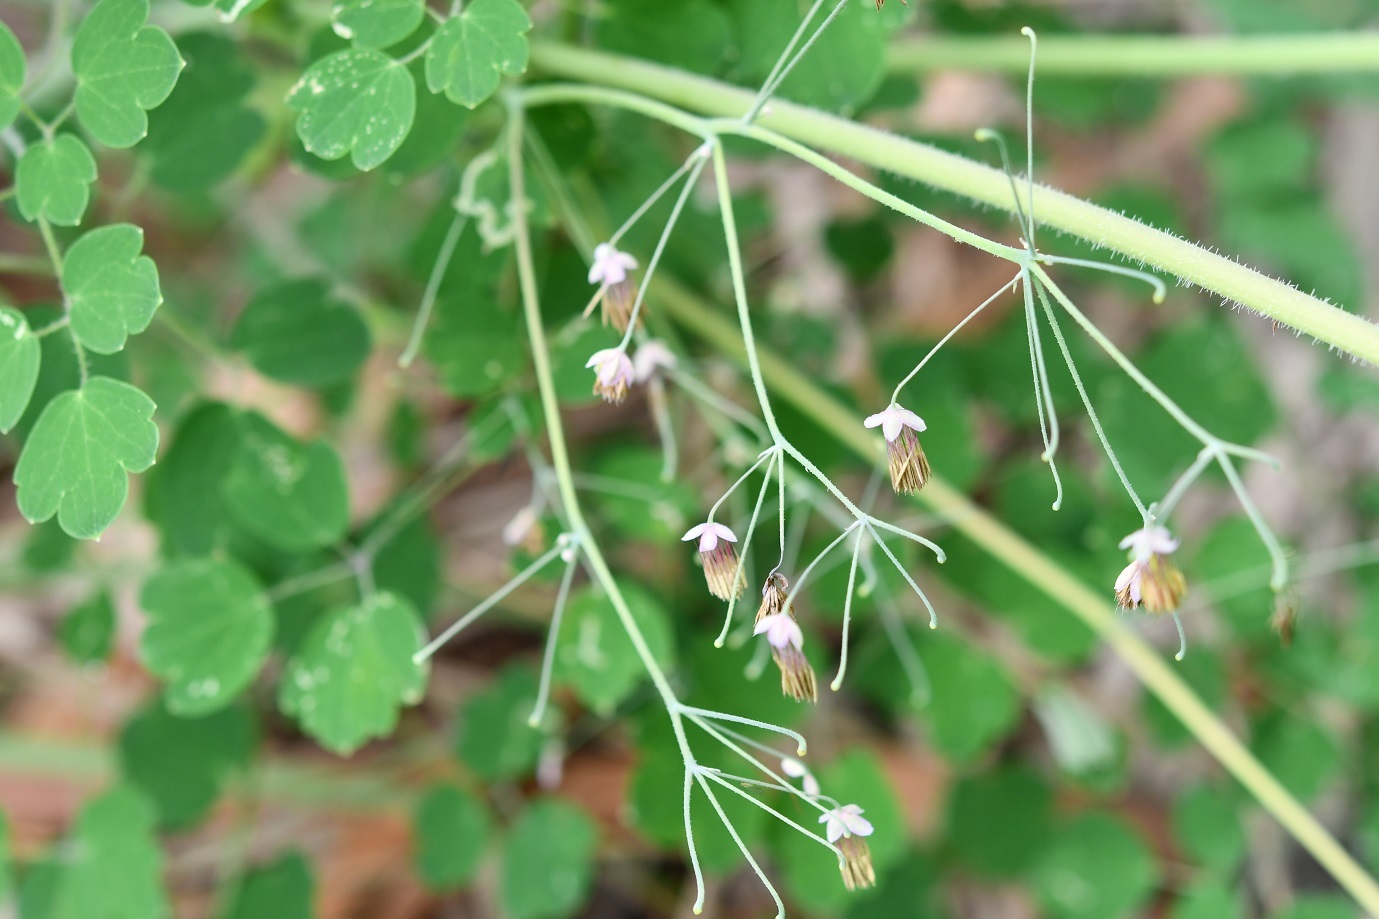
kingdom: Plantae
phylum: Tracheophyta
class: Magnoliopsida
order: Ranunculales
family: Ranunculaceae
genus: Thalictrum
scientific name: Thalictrum guatemalense
